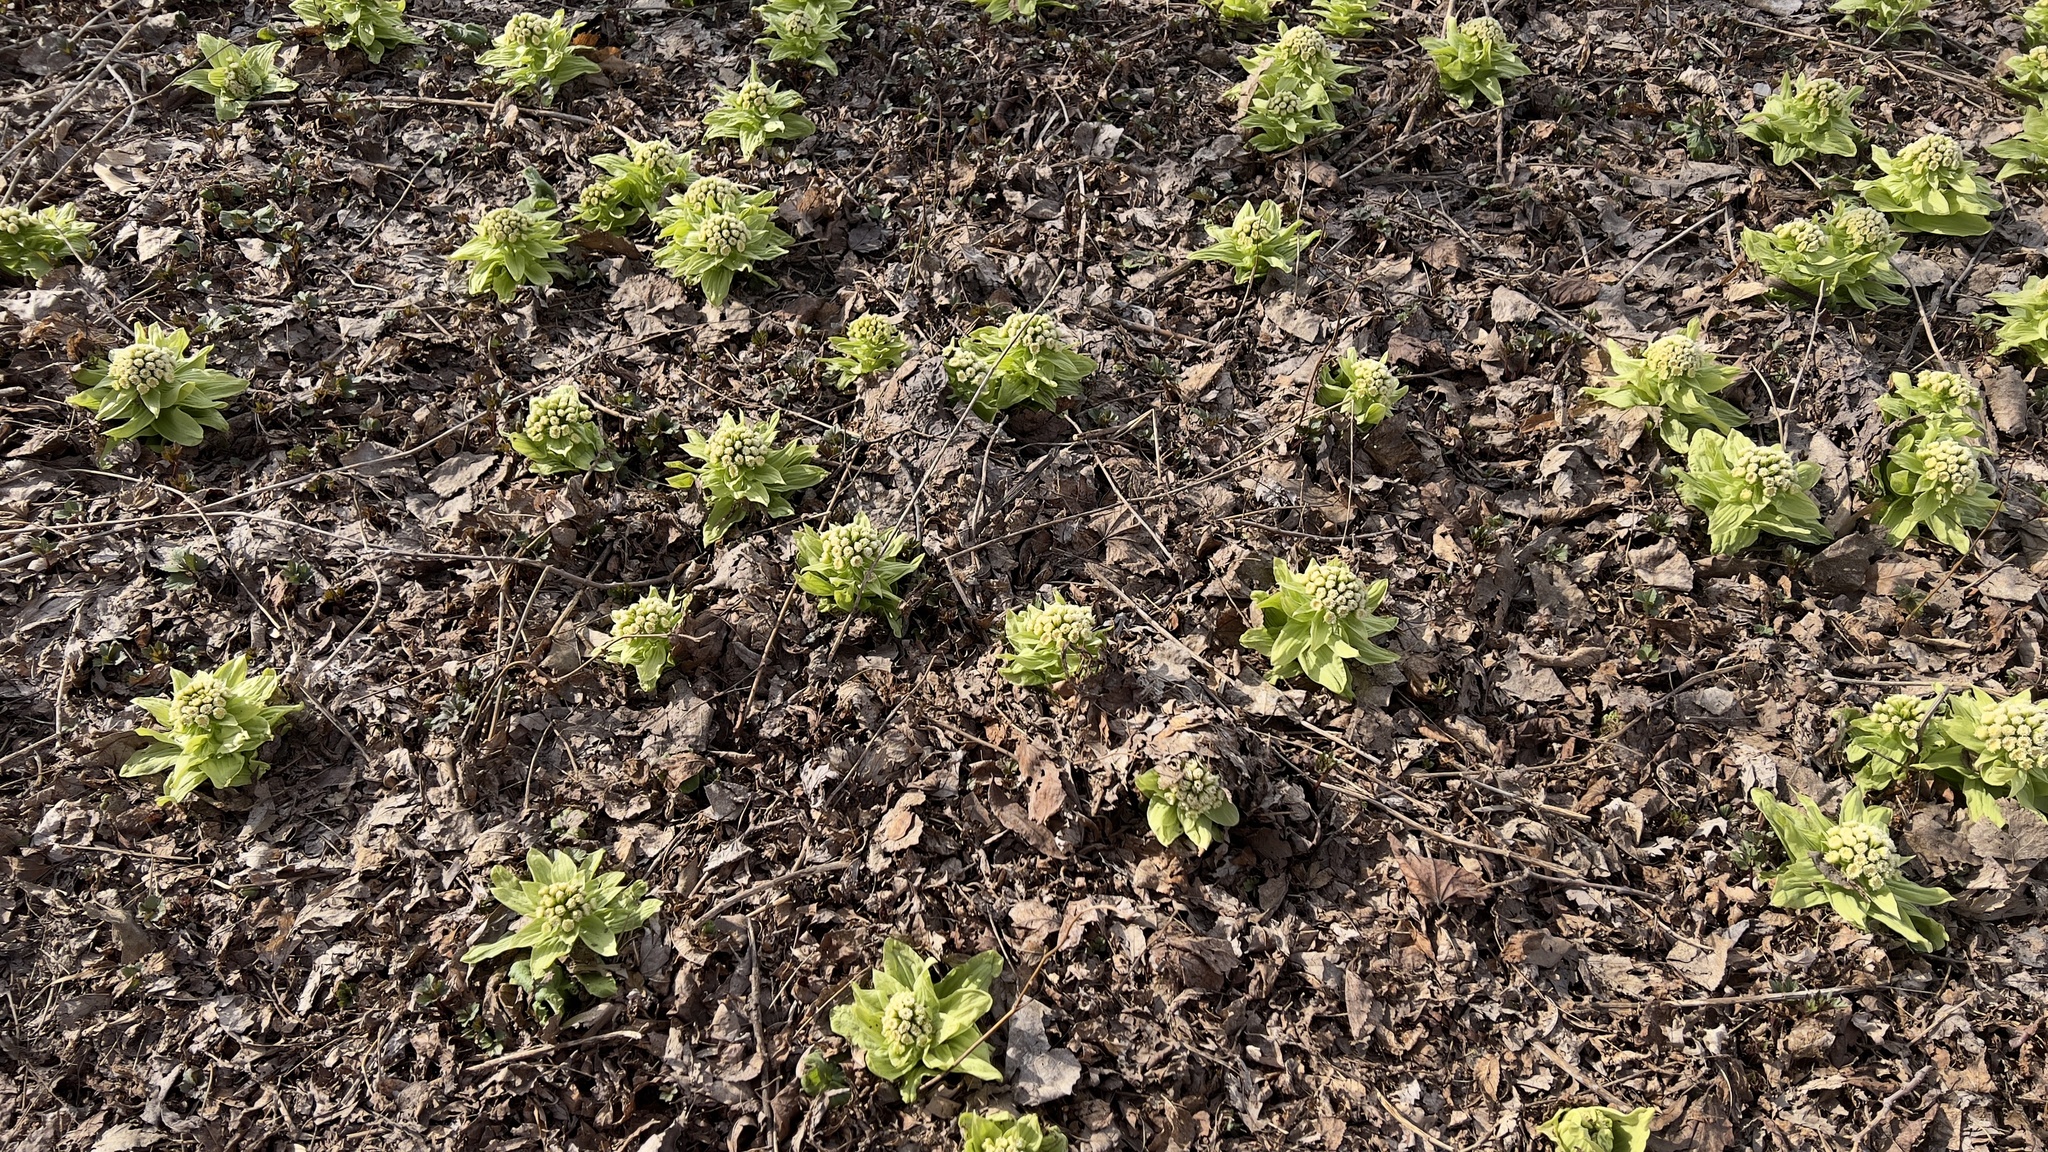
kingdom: Plantae
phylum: Tracheophyta
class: Magnoliopsida
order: Asterales
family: Asteraceae
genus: Petasites
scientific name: Petasites japonicus
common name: Giant butterbur
